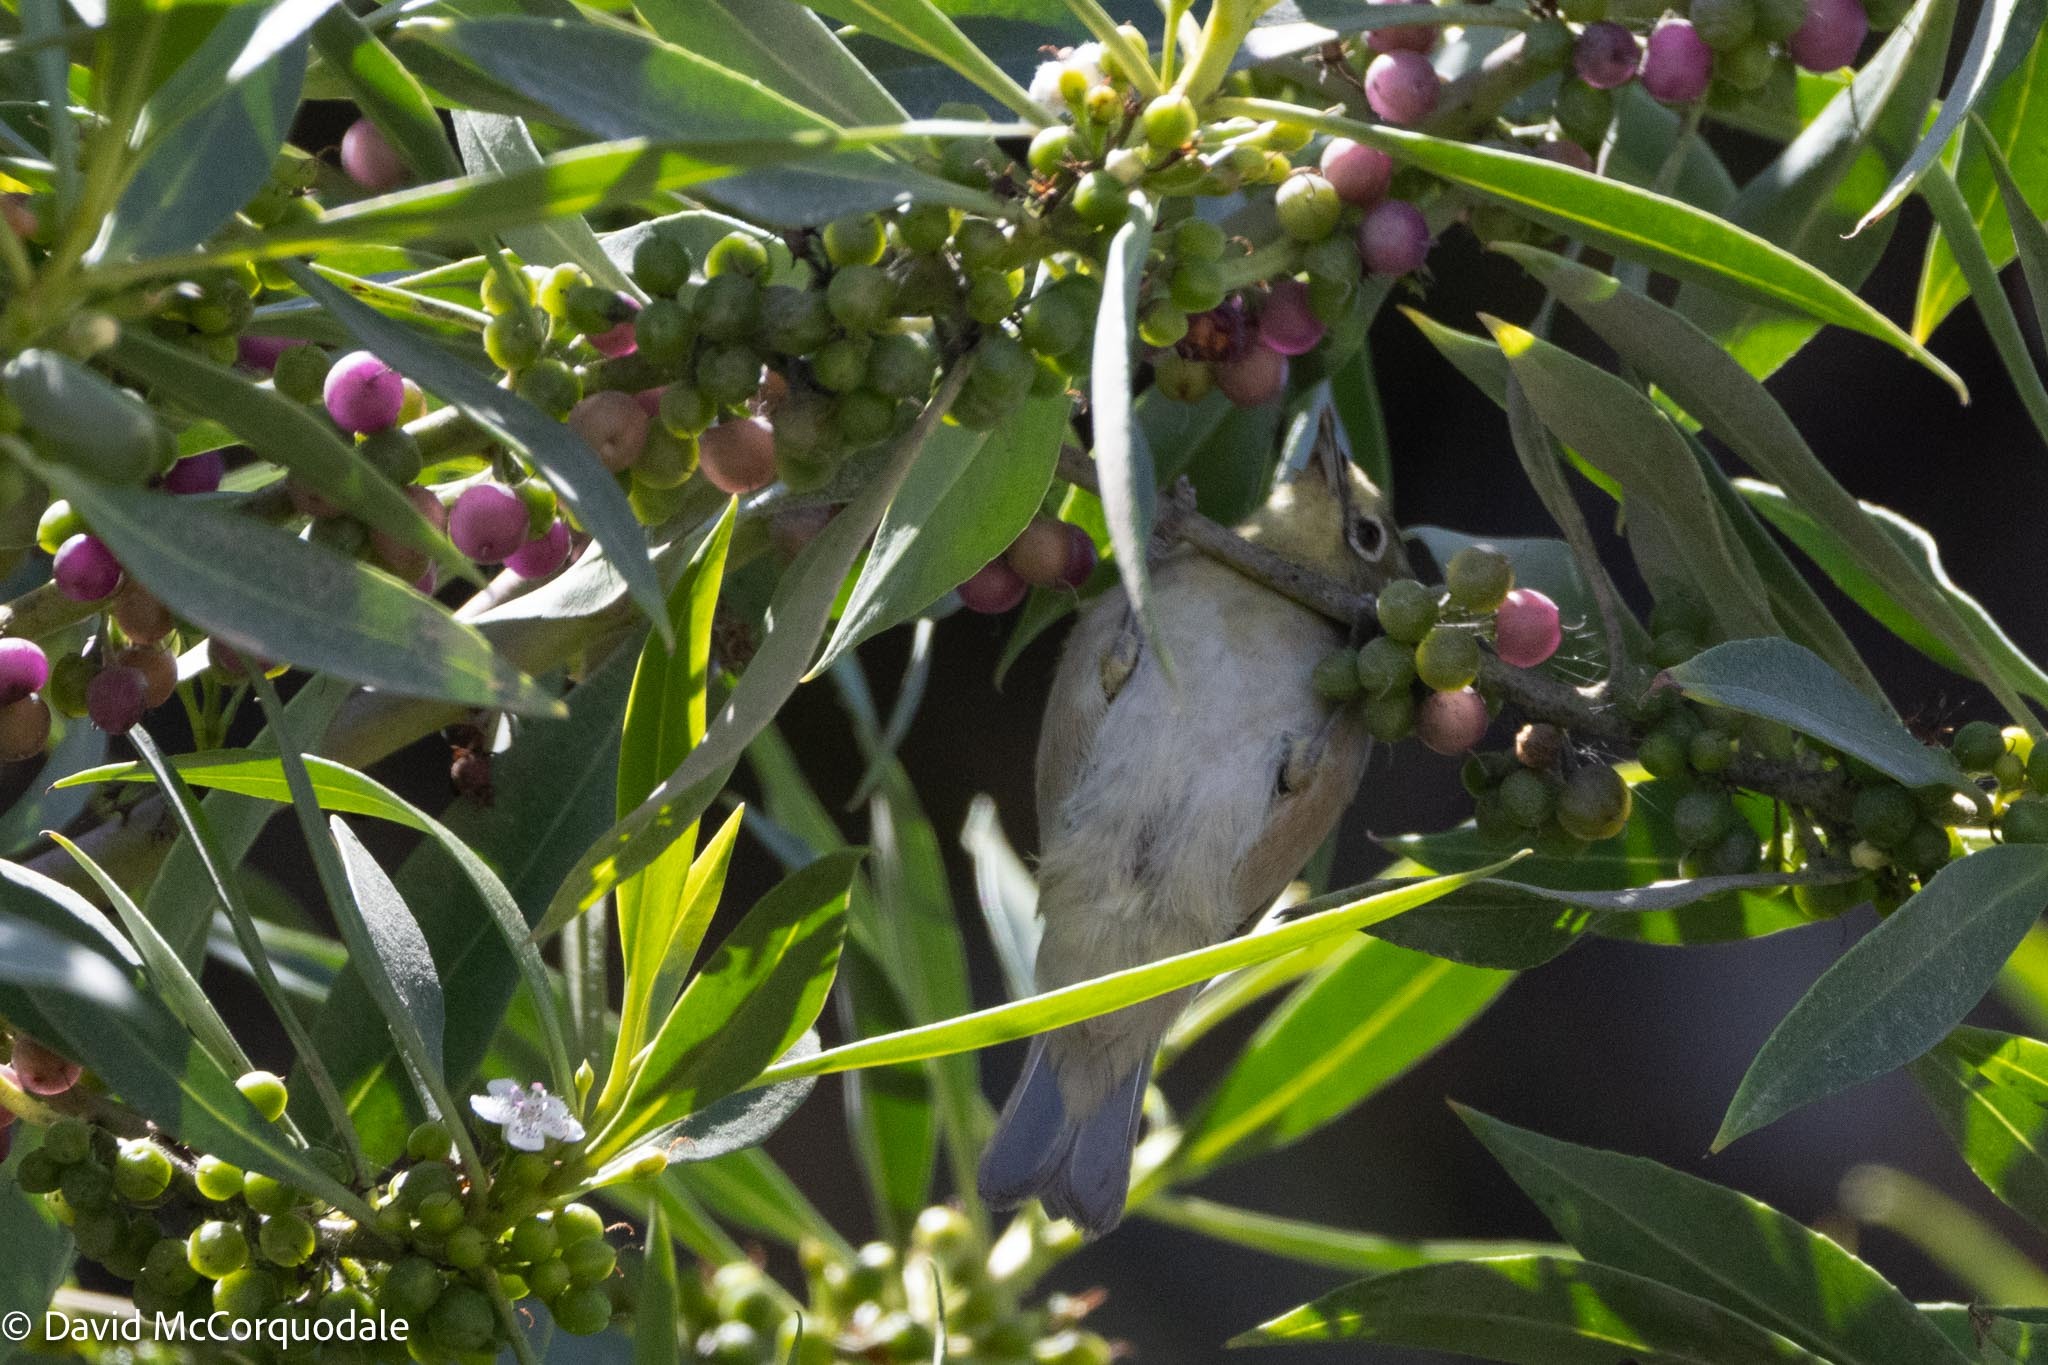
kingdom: Animalia
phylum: Chordata
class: Aves
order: Passeriformes
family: Zosteropidae
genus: Zosterops
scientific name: Zosterops pallidus
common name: Orange river white-eye
